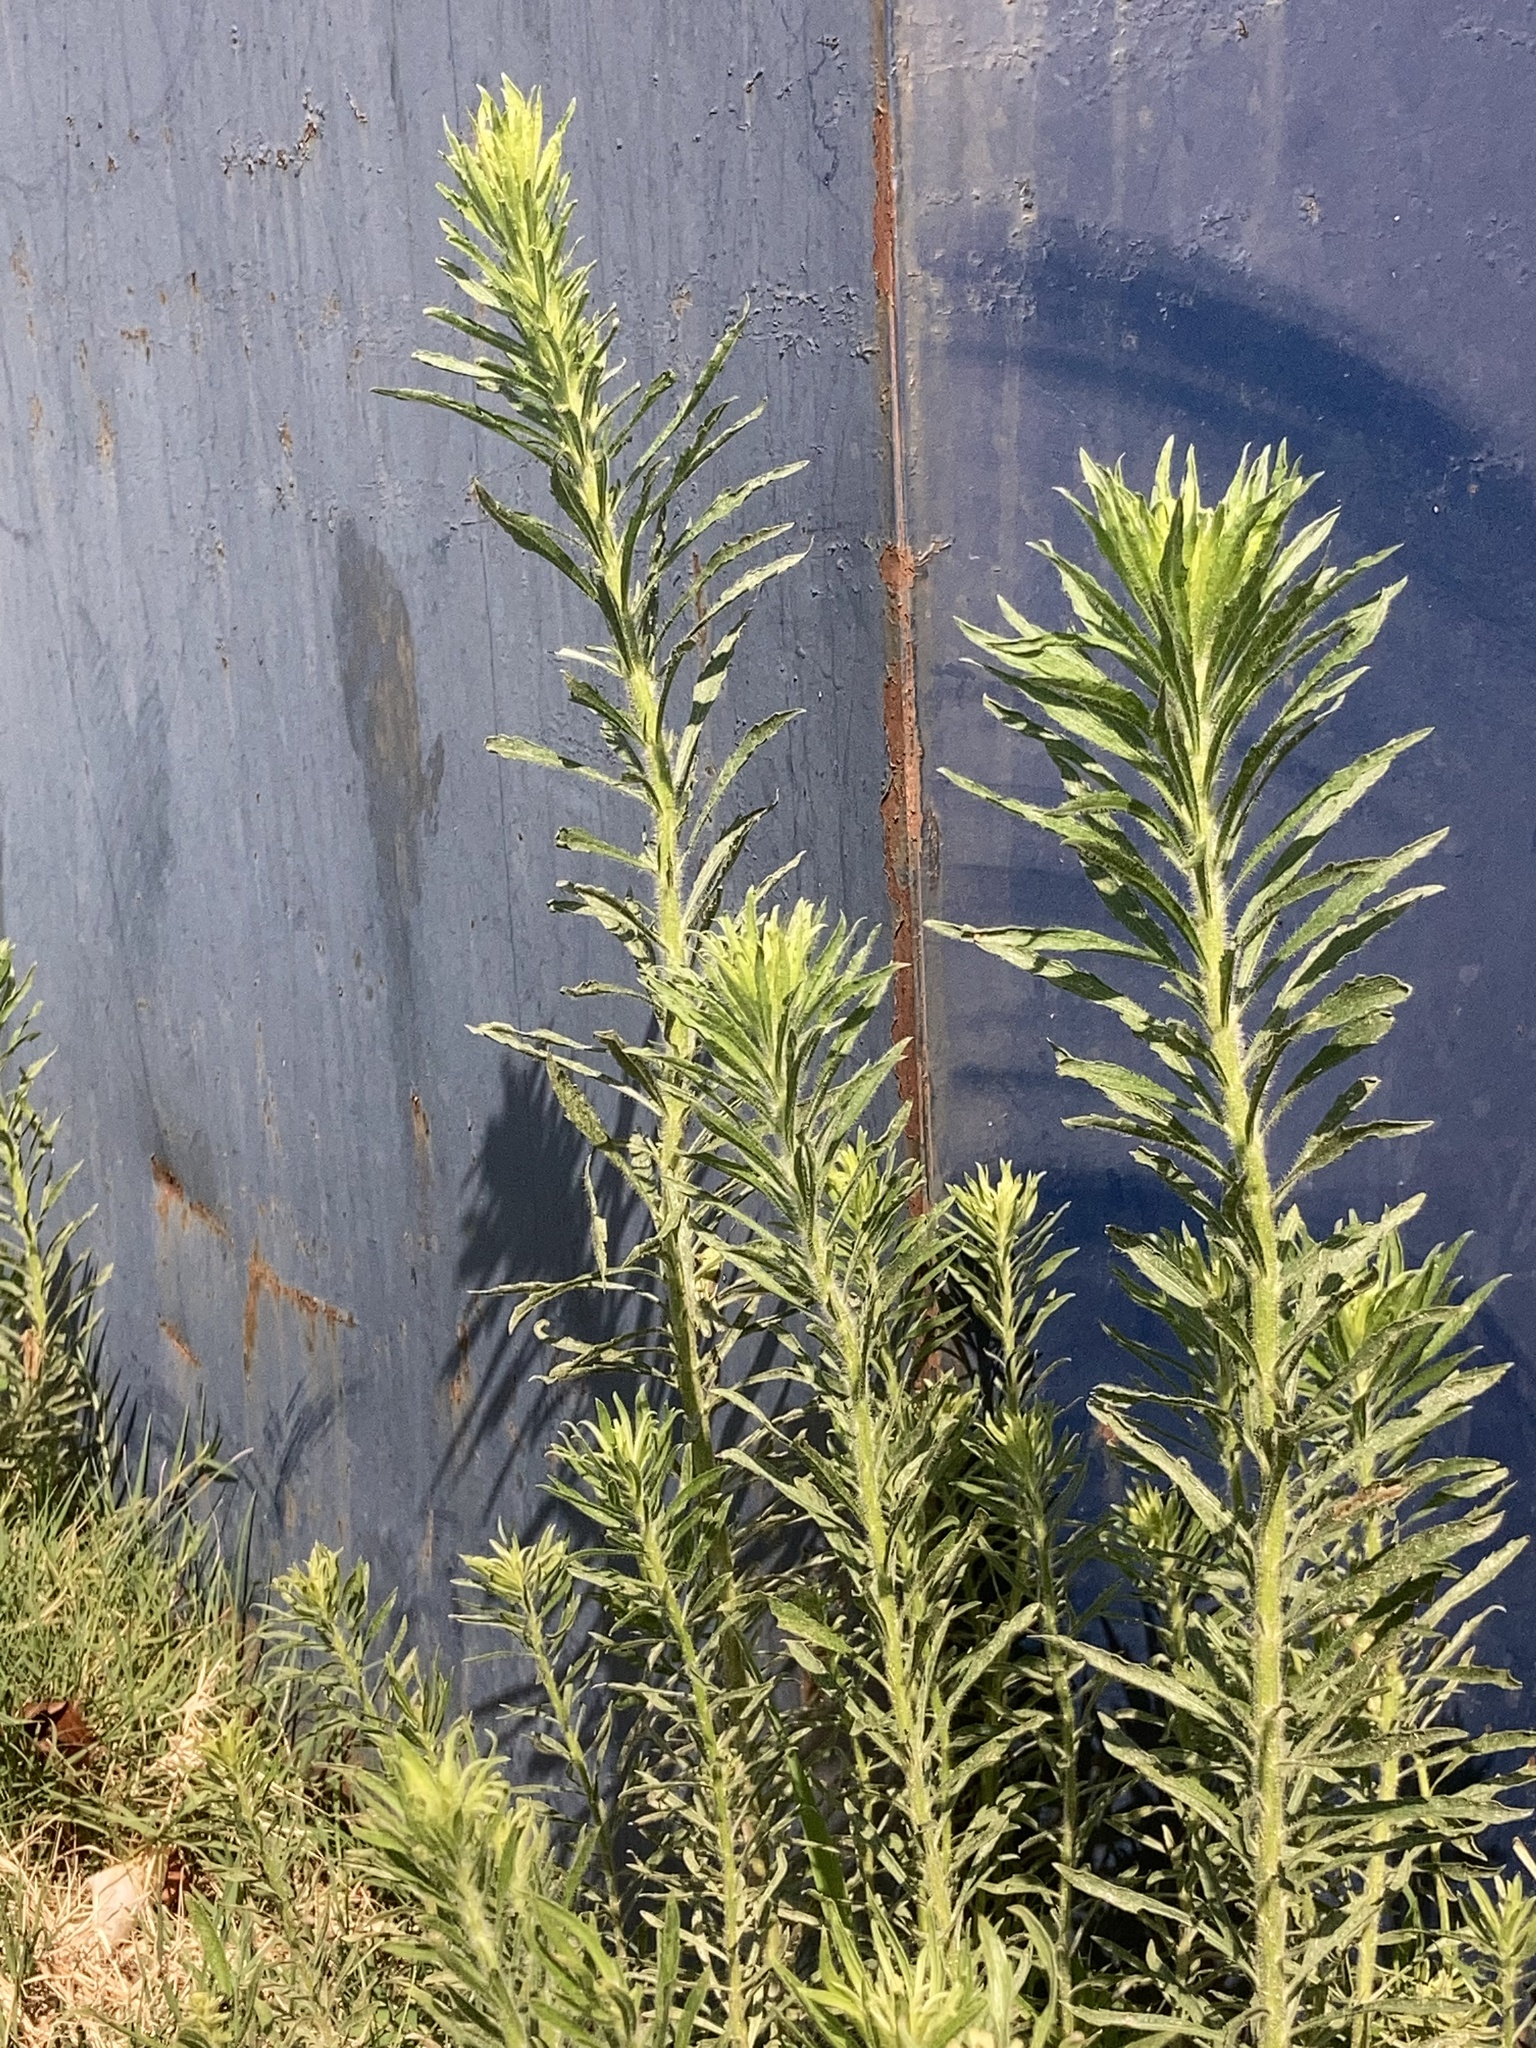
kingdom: Plantae
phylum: Tracheophyta
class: Magnoliopsida
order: Asterales
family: Asteraceae
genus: Erigeron
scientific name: Erigeron canadensis
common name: Canadian fleabane
